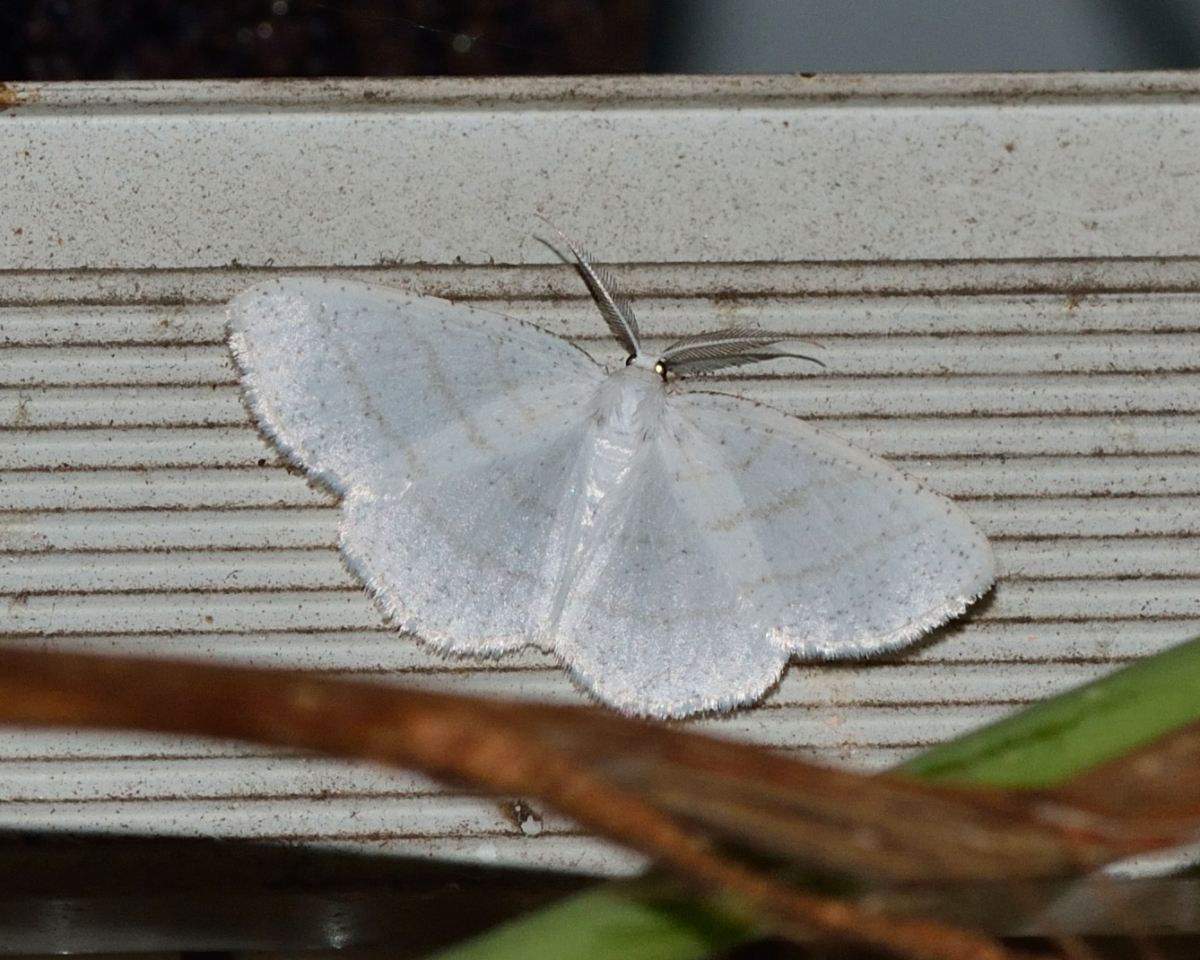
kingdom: Animalia
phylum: Arthropoda
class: Insecta
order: Lepidoptera
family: Geometridae
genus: Cabera
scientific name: Cabera pusaria
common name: Common white wave
